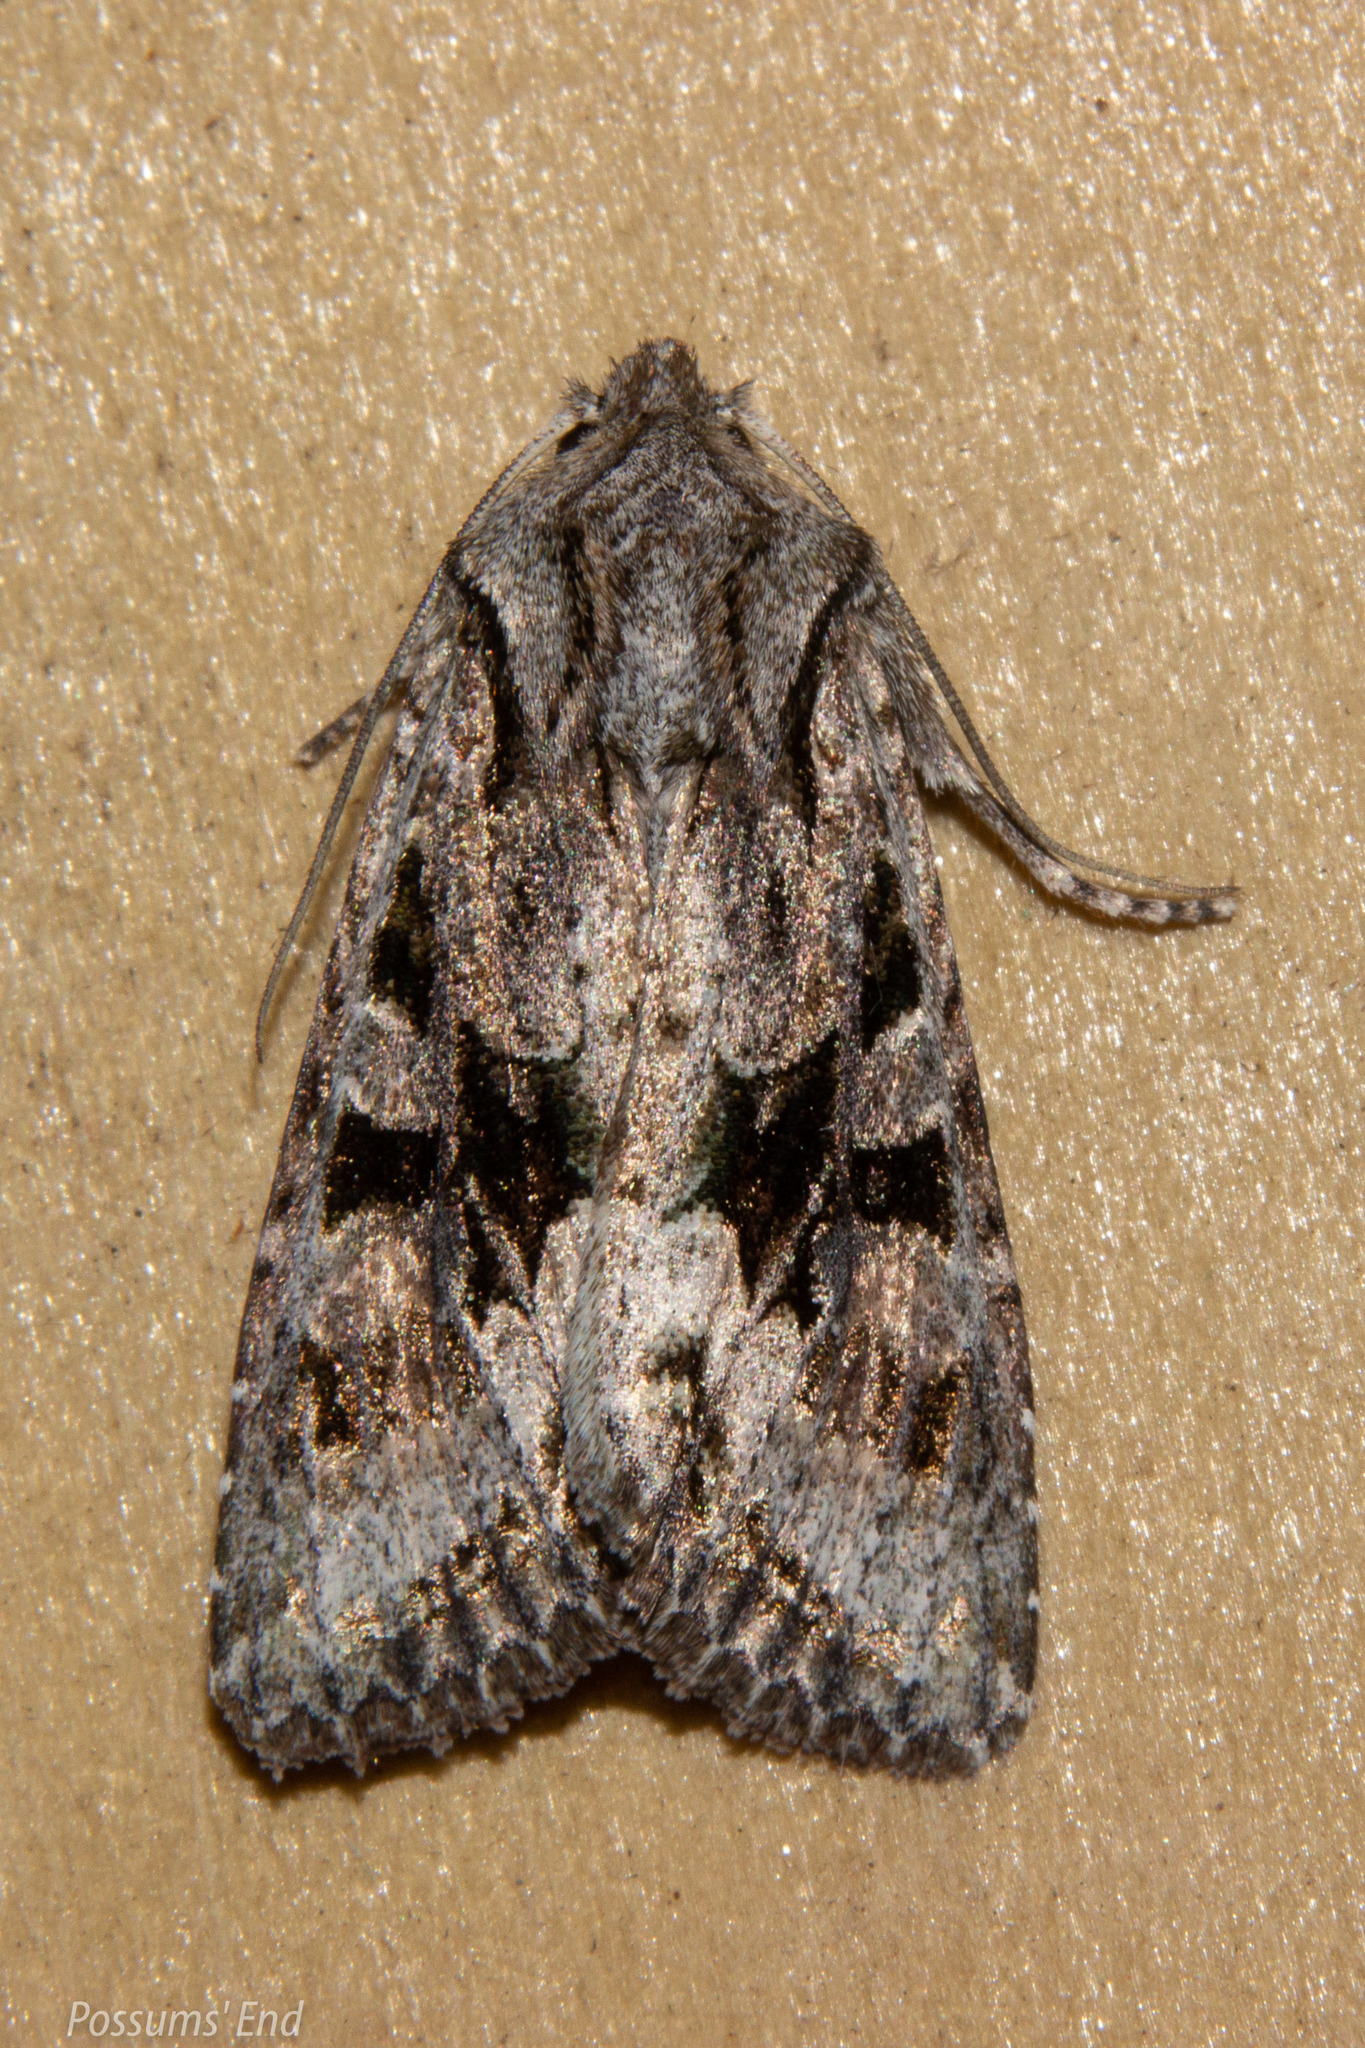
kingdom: Animalia
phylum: Arthropoda
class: Insecta
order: Lepidoptera
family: Noctuidae
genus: Ichneutica
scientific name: Ichneutica mutans
